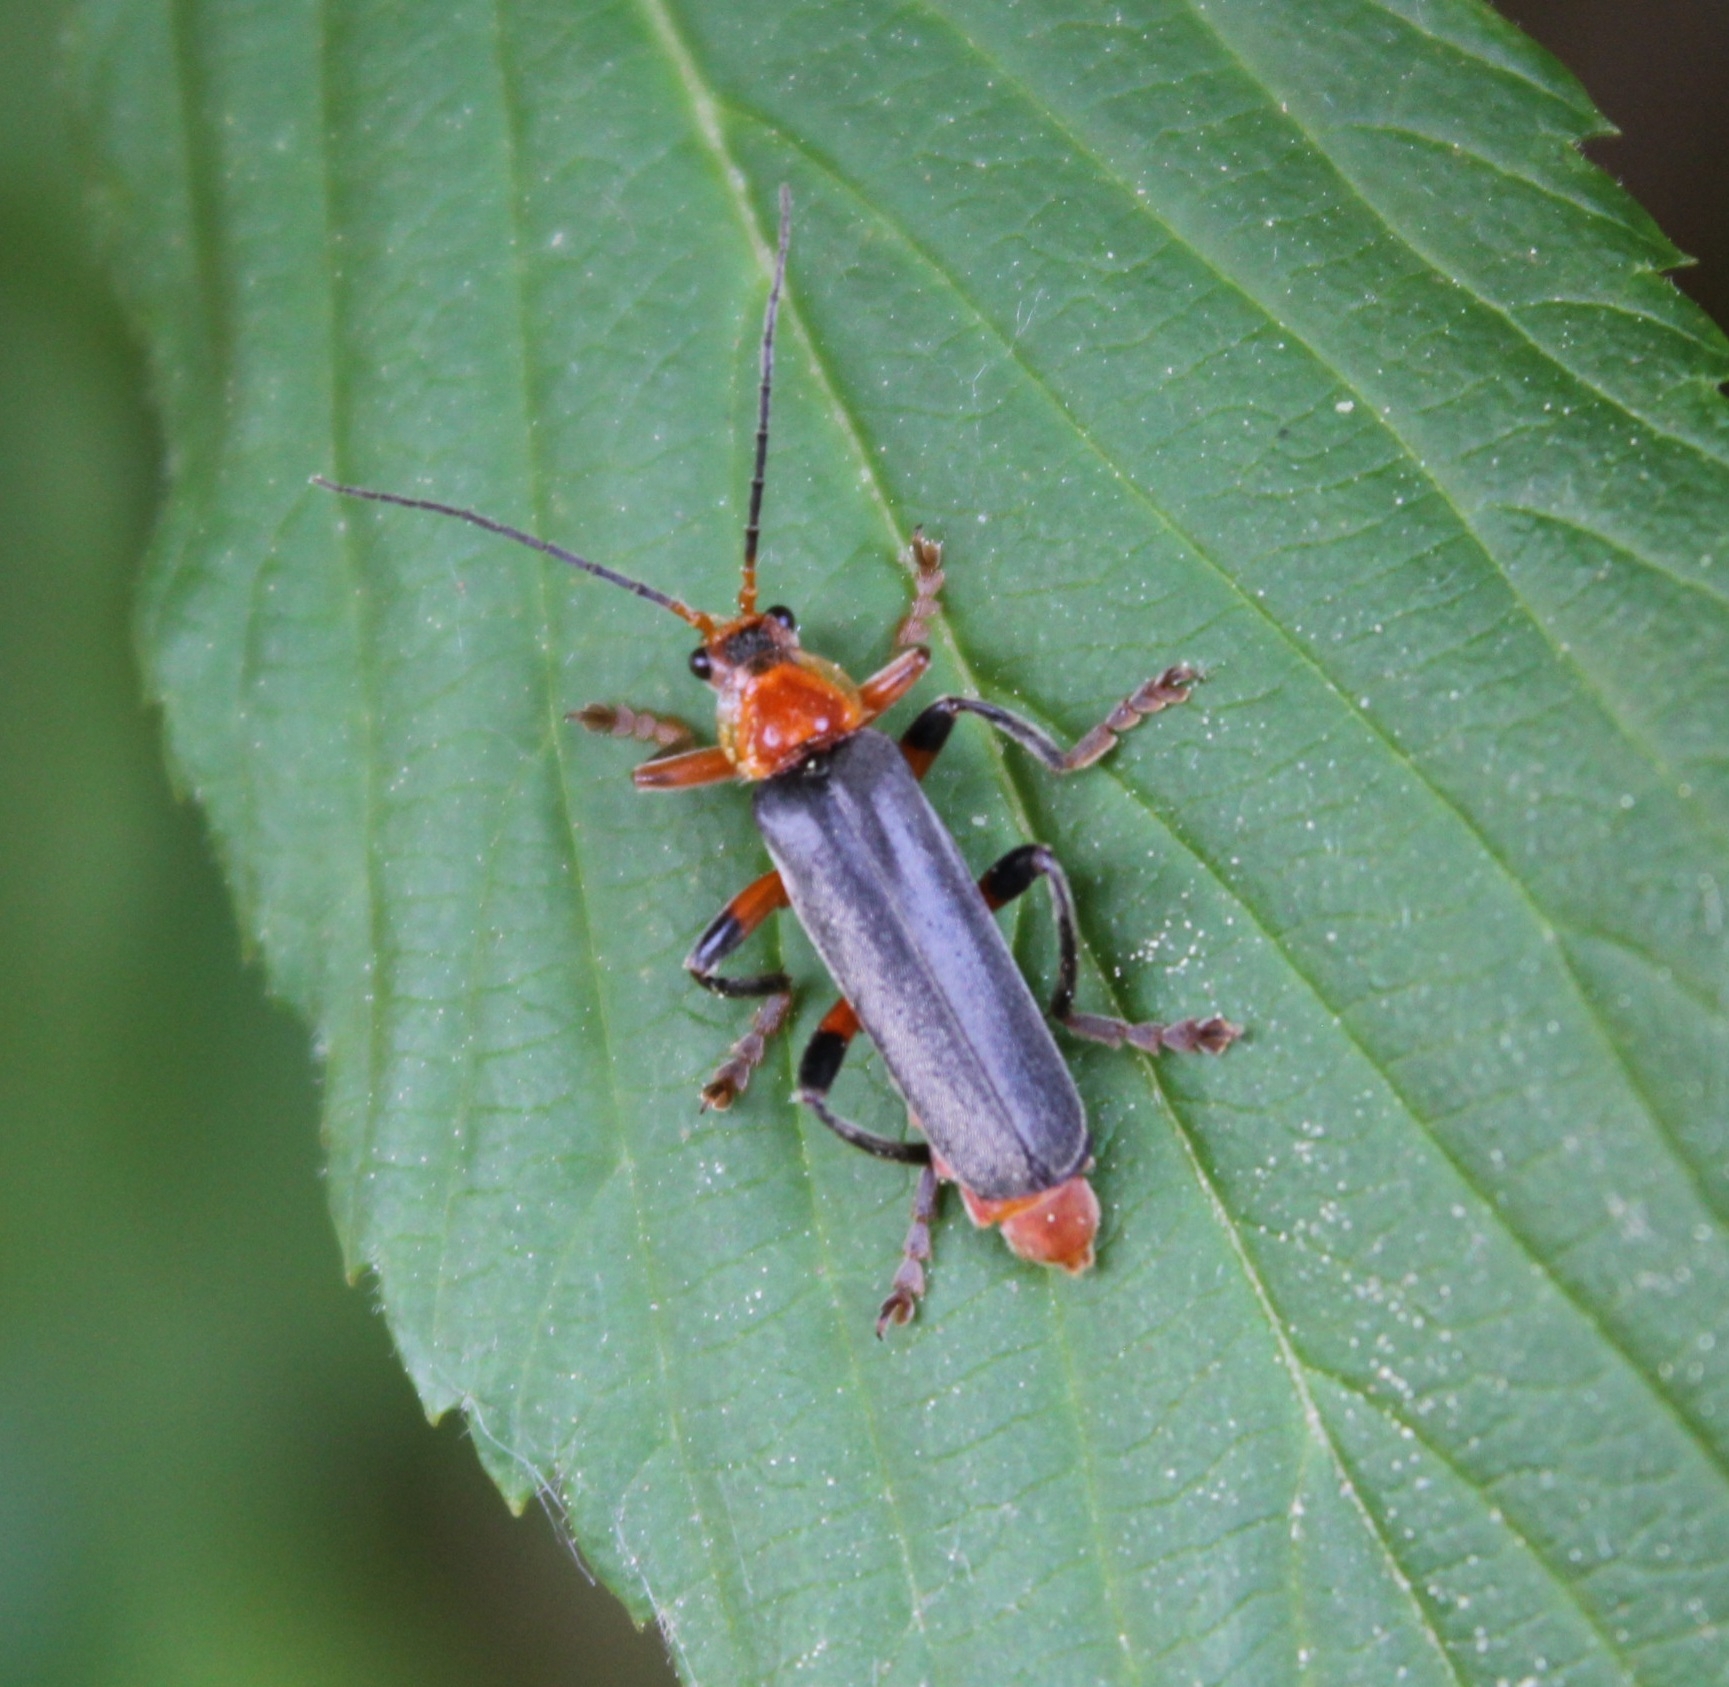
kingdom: Animalia
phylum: Arthropoda
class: Insecta
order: Coleoptera
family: Cantharidae
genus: Cantharis
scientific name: Cantharis livida
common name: Livid soldier beetle
